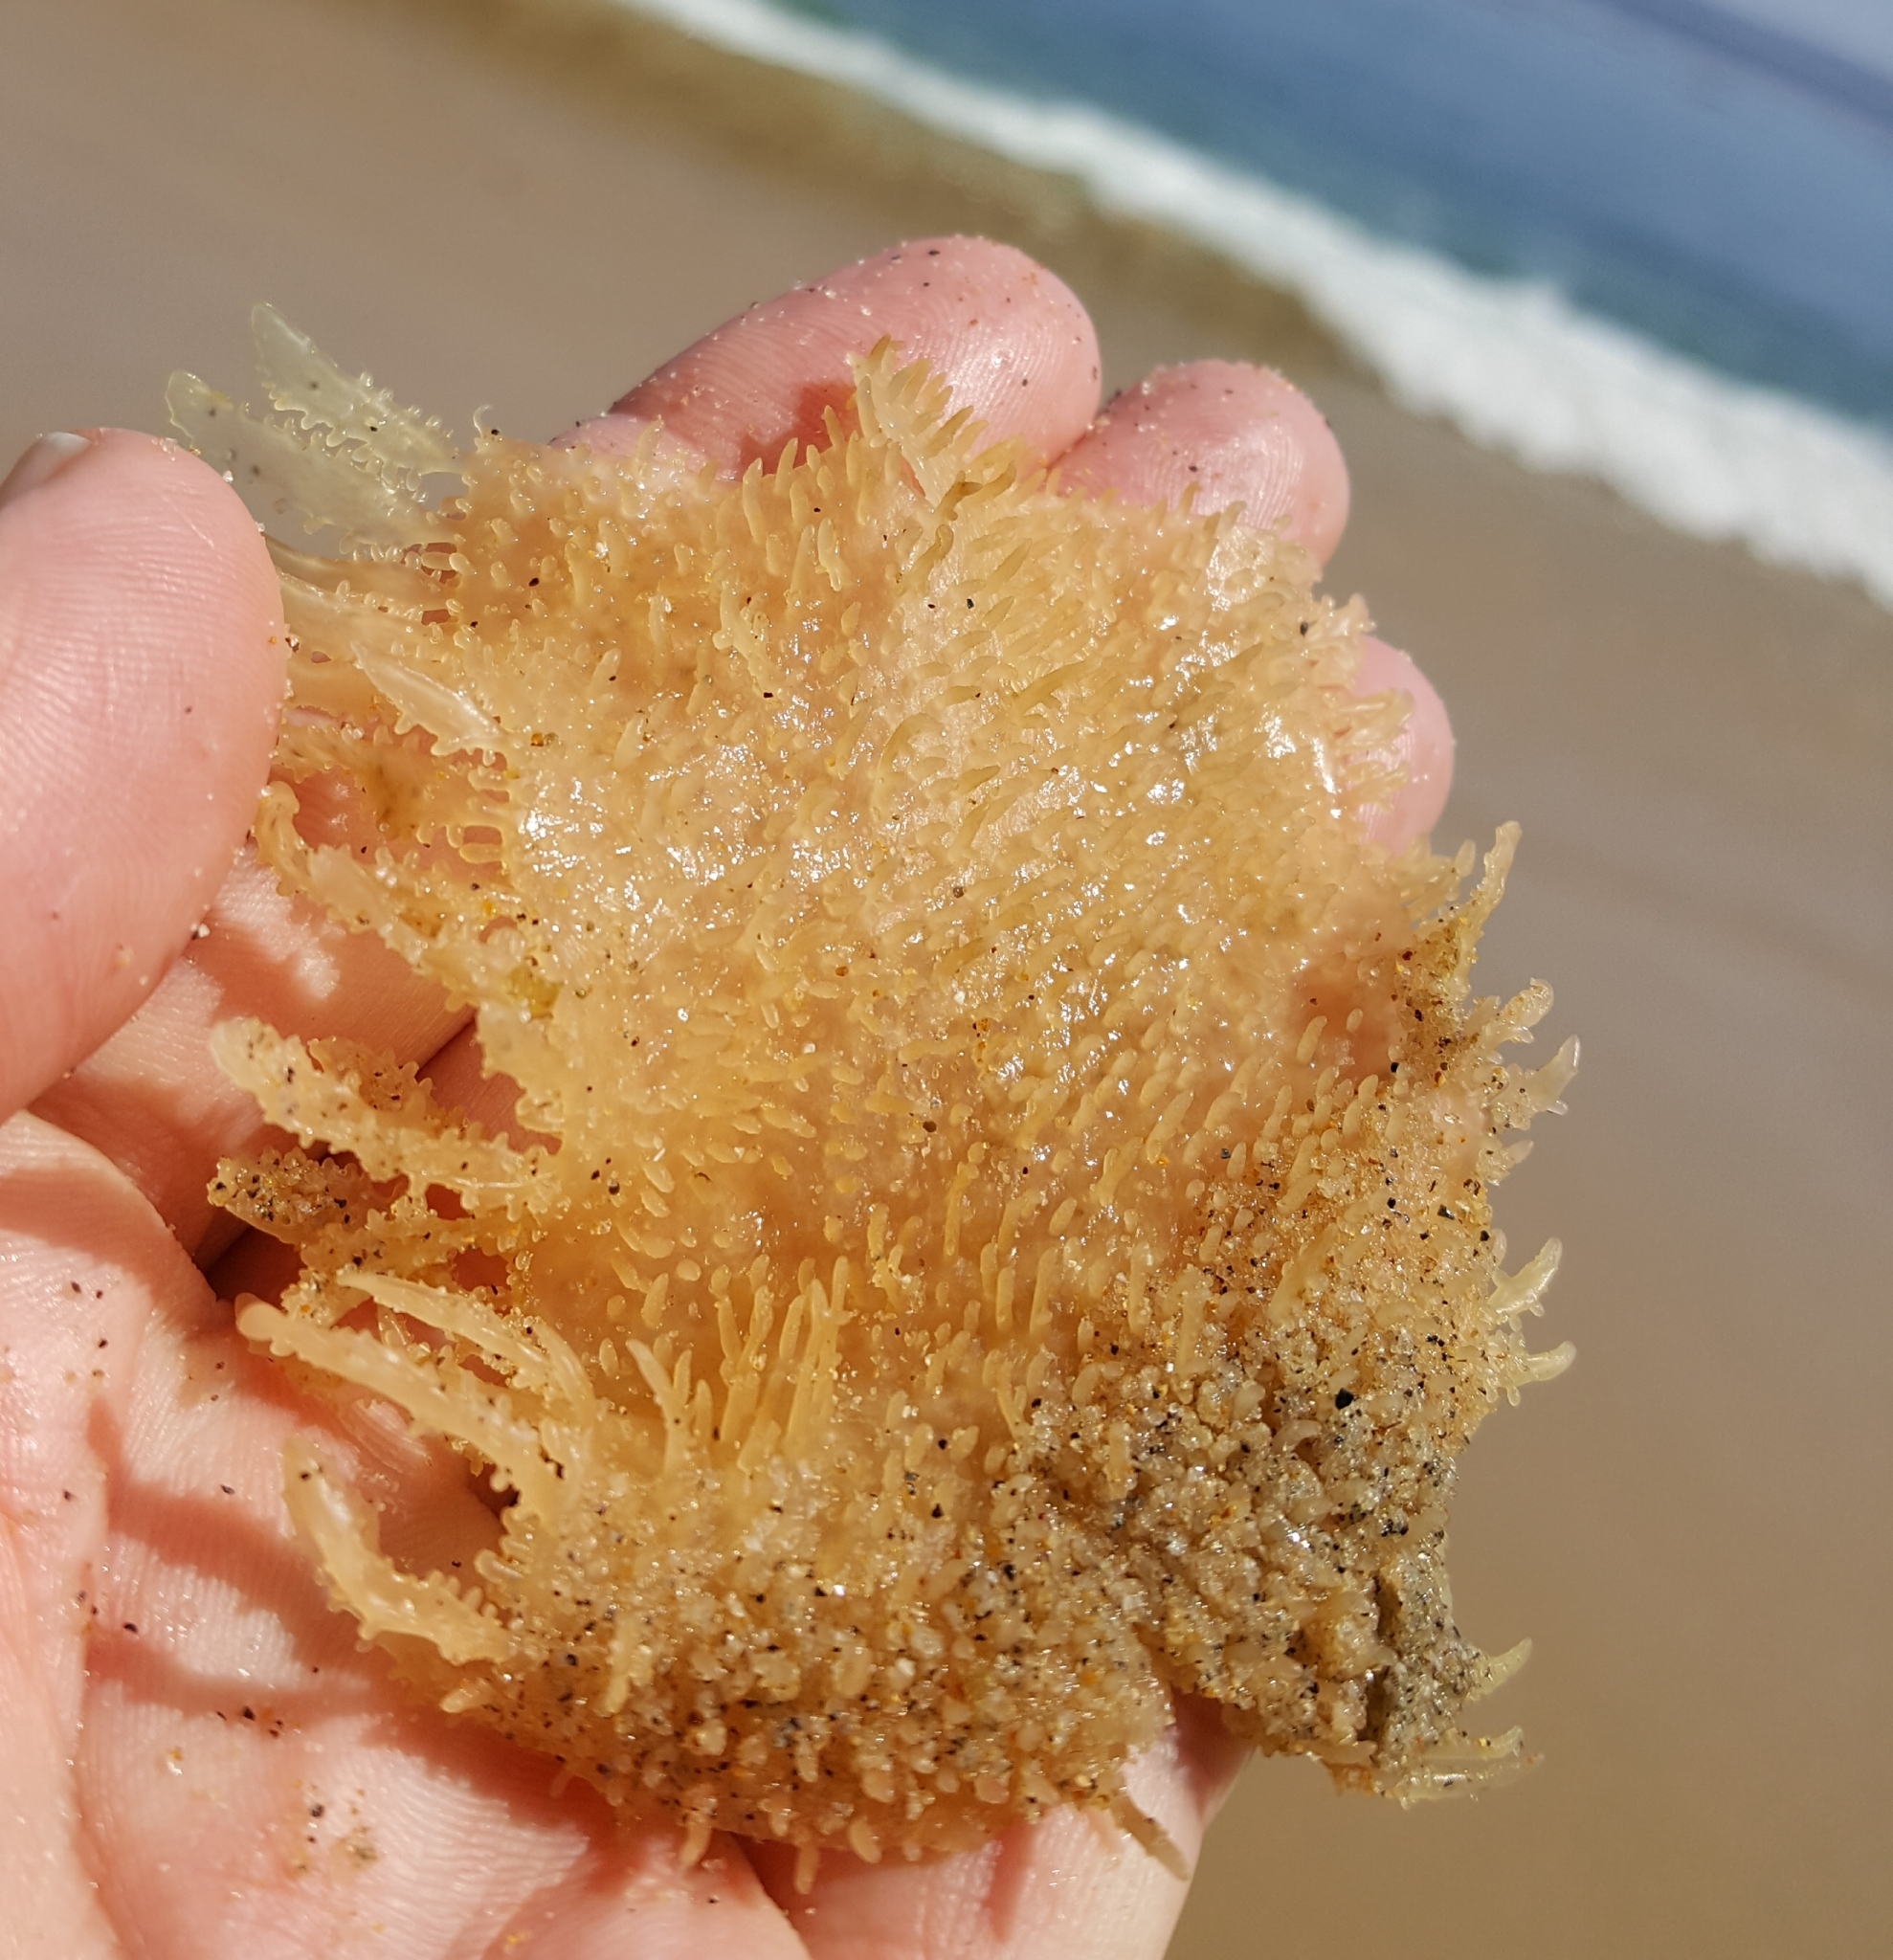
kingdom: Plantae
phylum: Rhodophyta
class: Florideophyceae
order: Gigartinales
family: Gigartinaceae
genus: Chondracanthus
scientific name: Chondracanthus exasperatus
